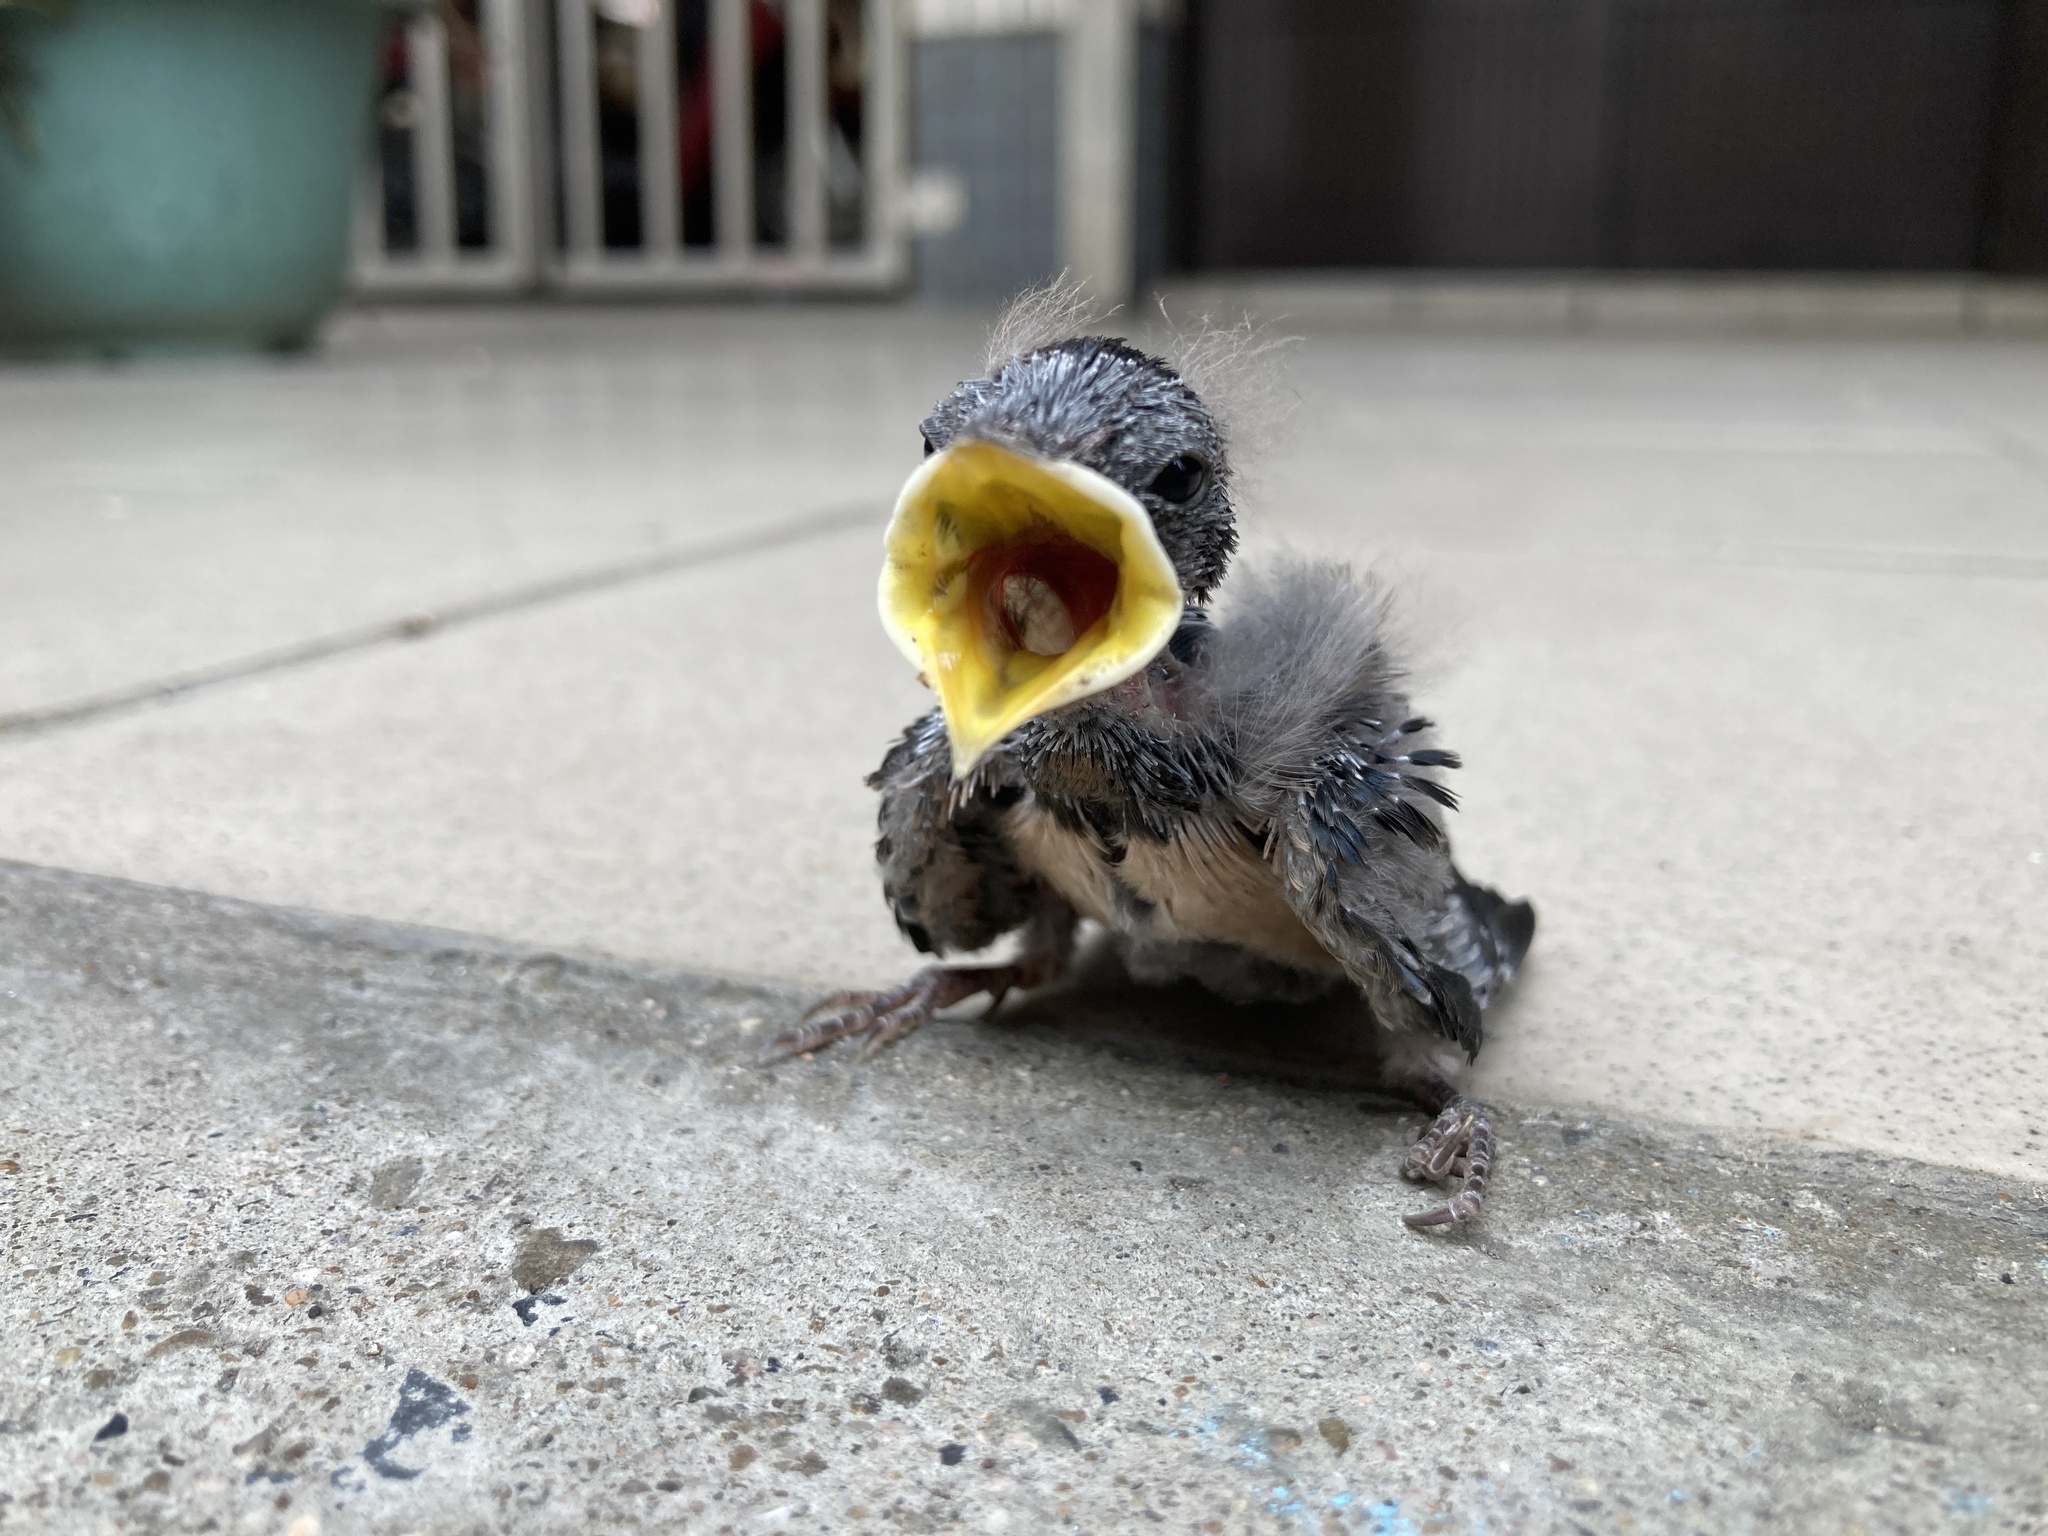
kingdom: Animalia
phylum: Chordata
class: Aves
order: Passeriformes
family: Hirundinidae
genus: Hirundo
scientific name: Hirundo rustica
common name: Barn swallow
